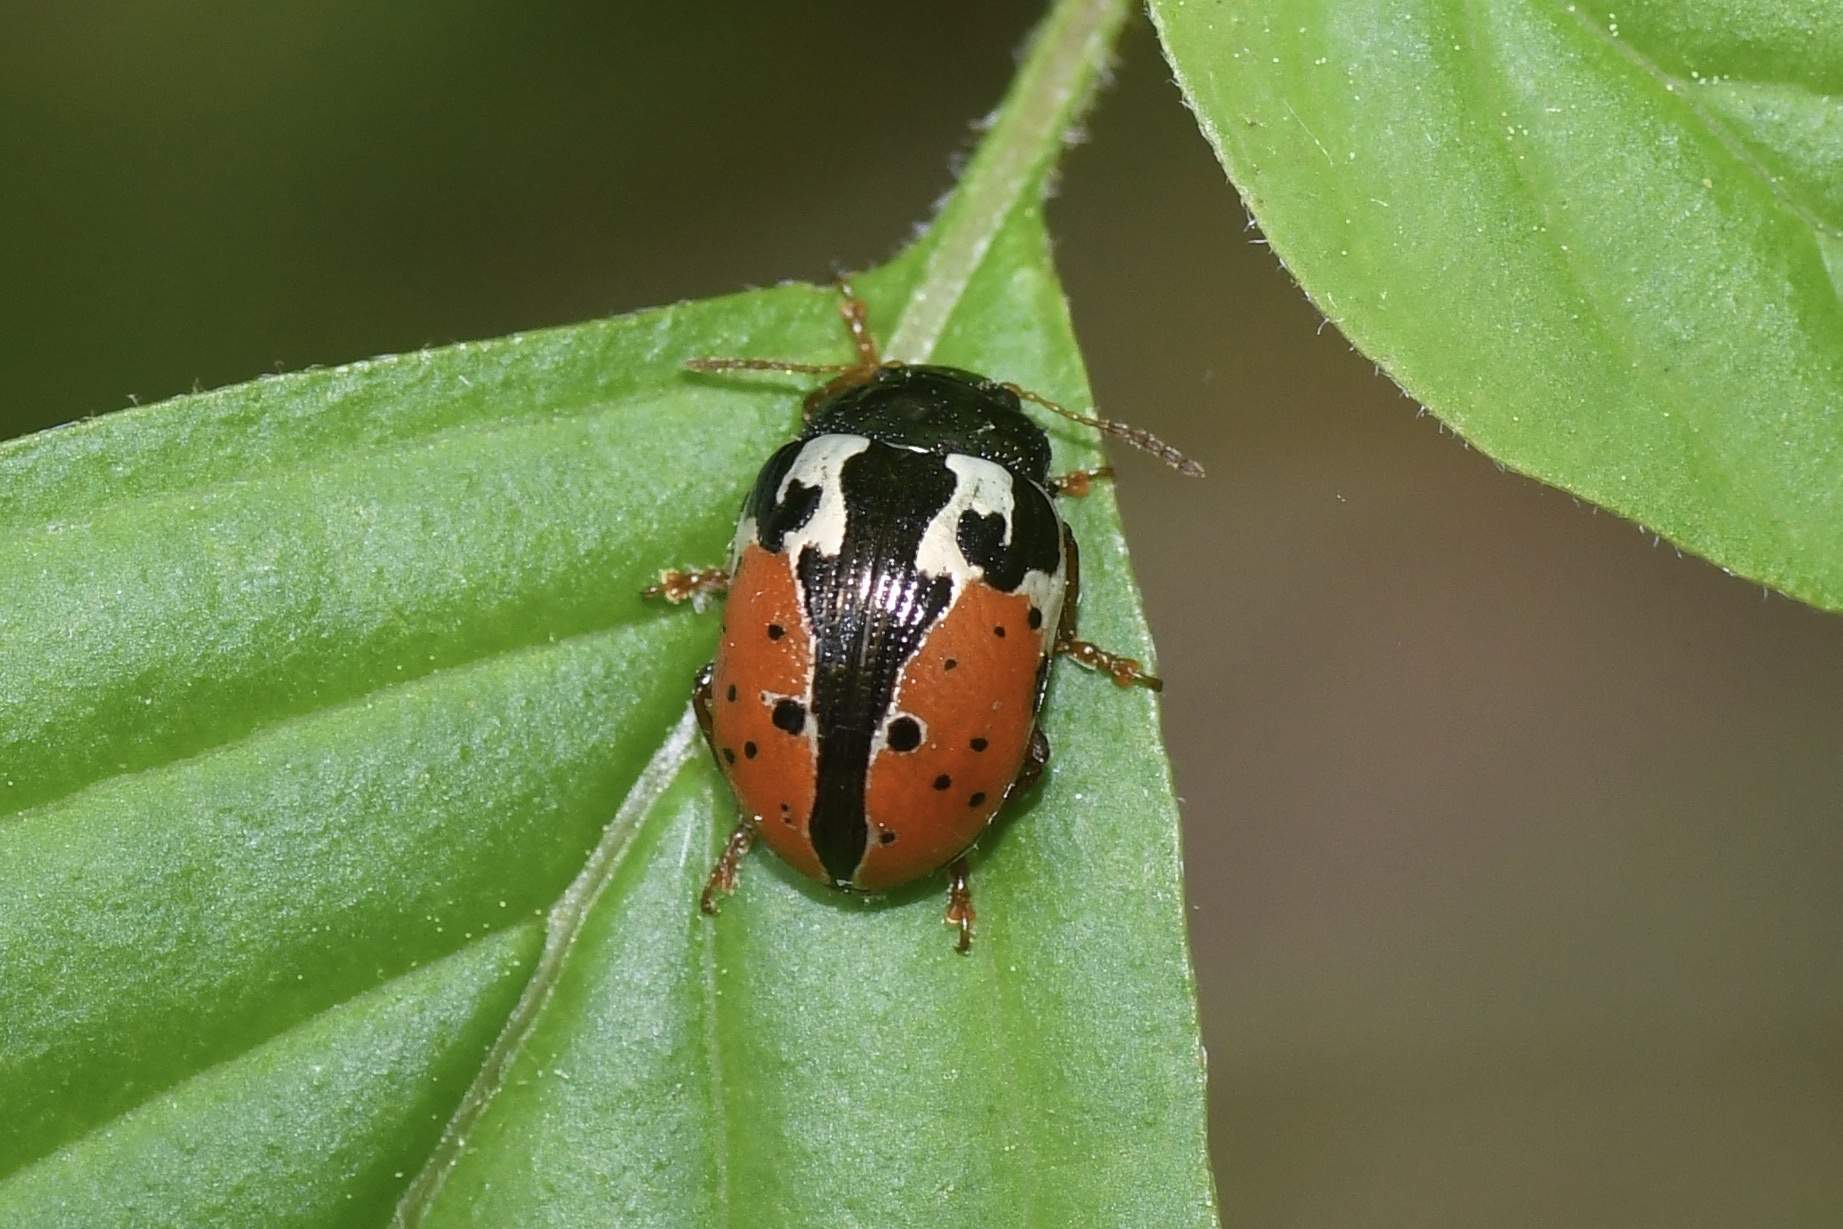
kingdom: Animalia
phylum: Arthropoda
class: Insecta
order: Coleoptera
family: Chrysomelidae
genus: Calligrapha
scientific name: Calligrapha rowena
